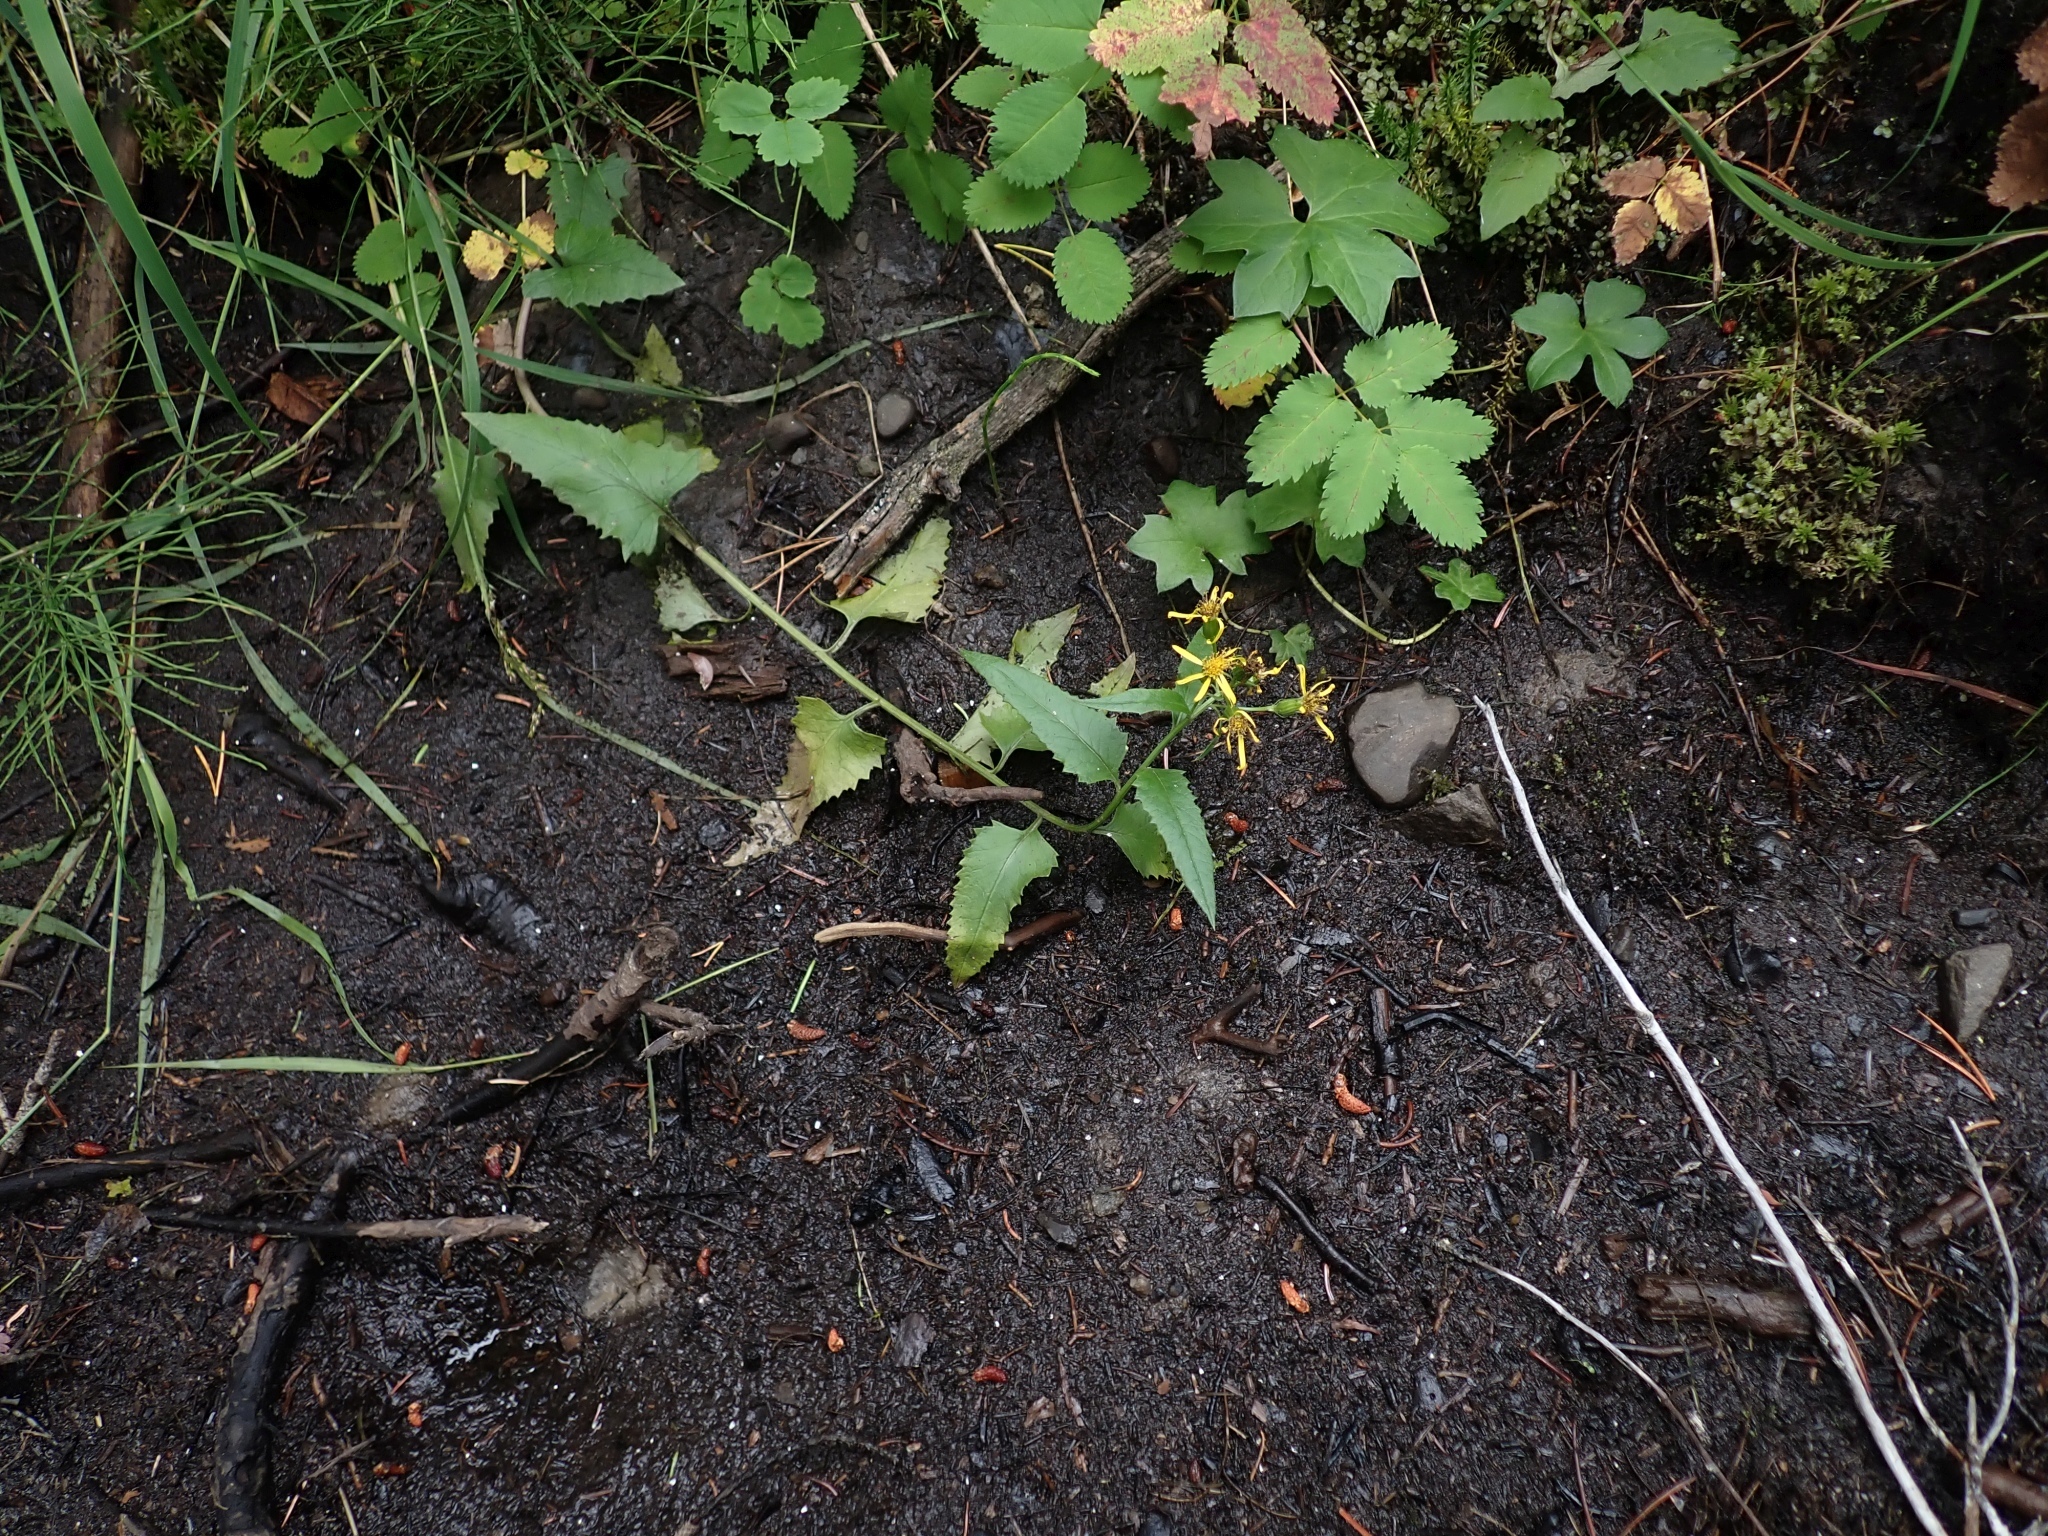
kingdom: Plantae
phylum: Tracheophyta
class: Magnoliopsida
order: Asterales
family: Asteraceae
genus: Senecio
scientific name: Senecio triangularis
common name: Arrowleaf butterweed
